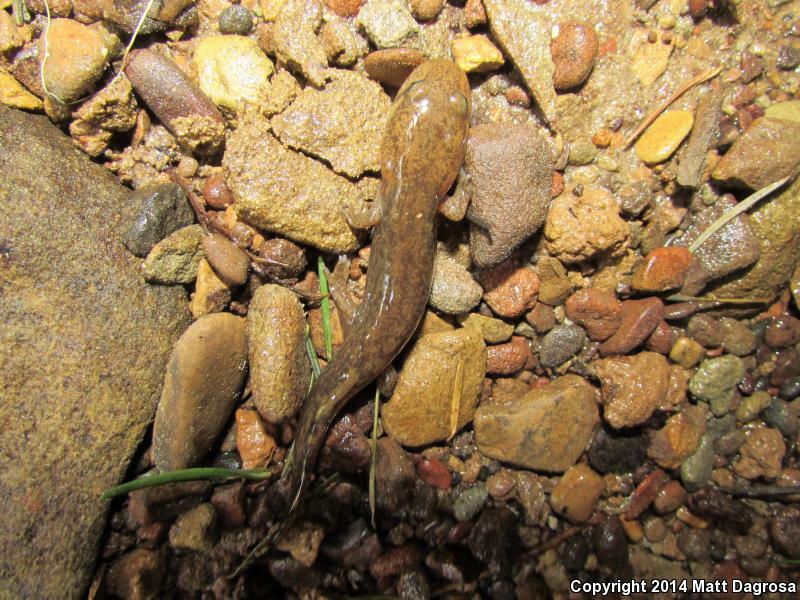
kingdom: Animalia
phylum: Chordata
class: Amphibia
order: Caudata
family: Ambystomatidae
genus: Dicamptodon
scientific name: Dicamptodon tenebrosus
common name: Coastal giant salamander
